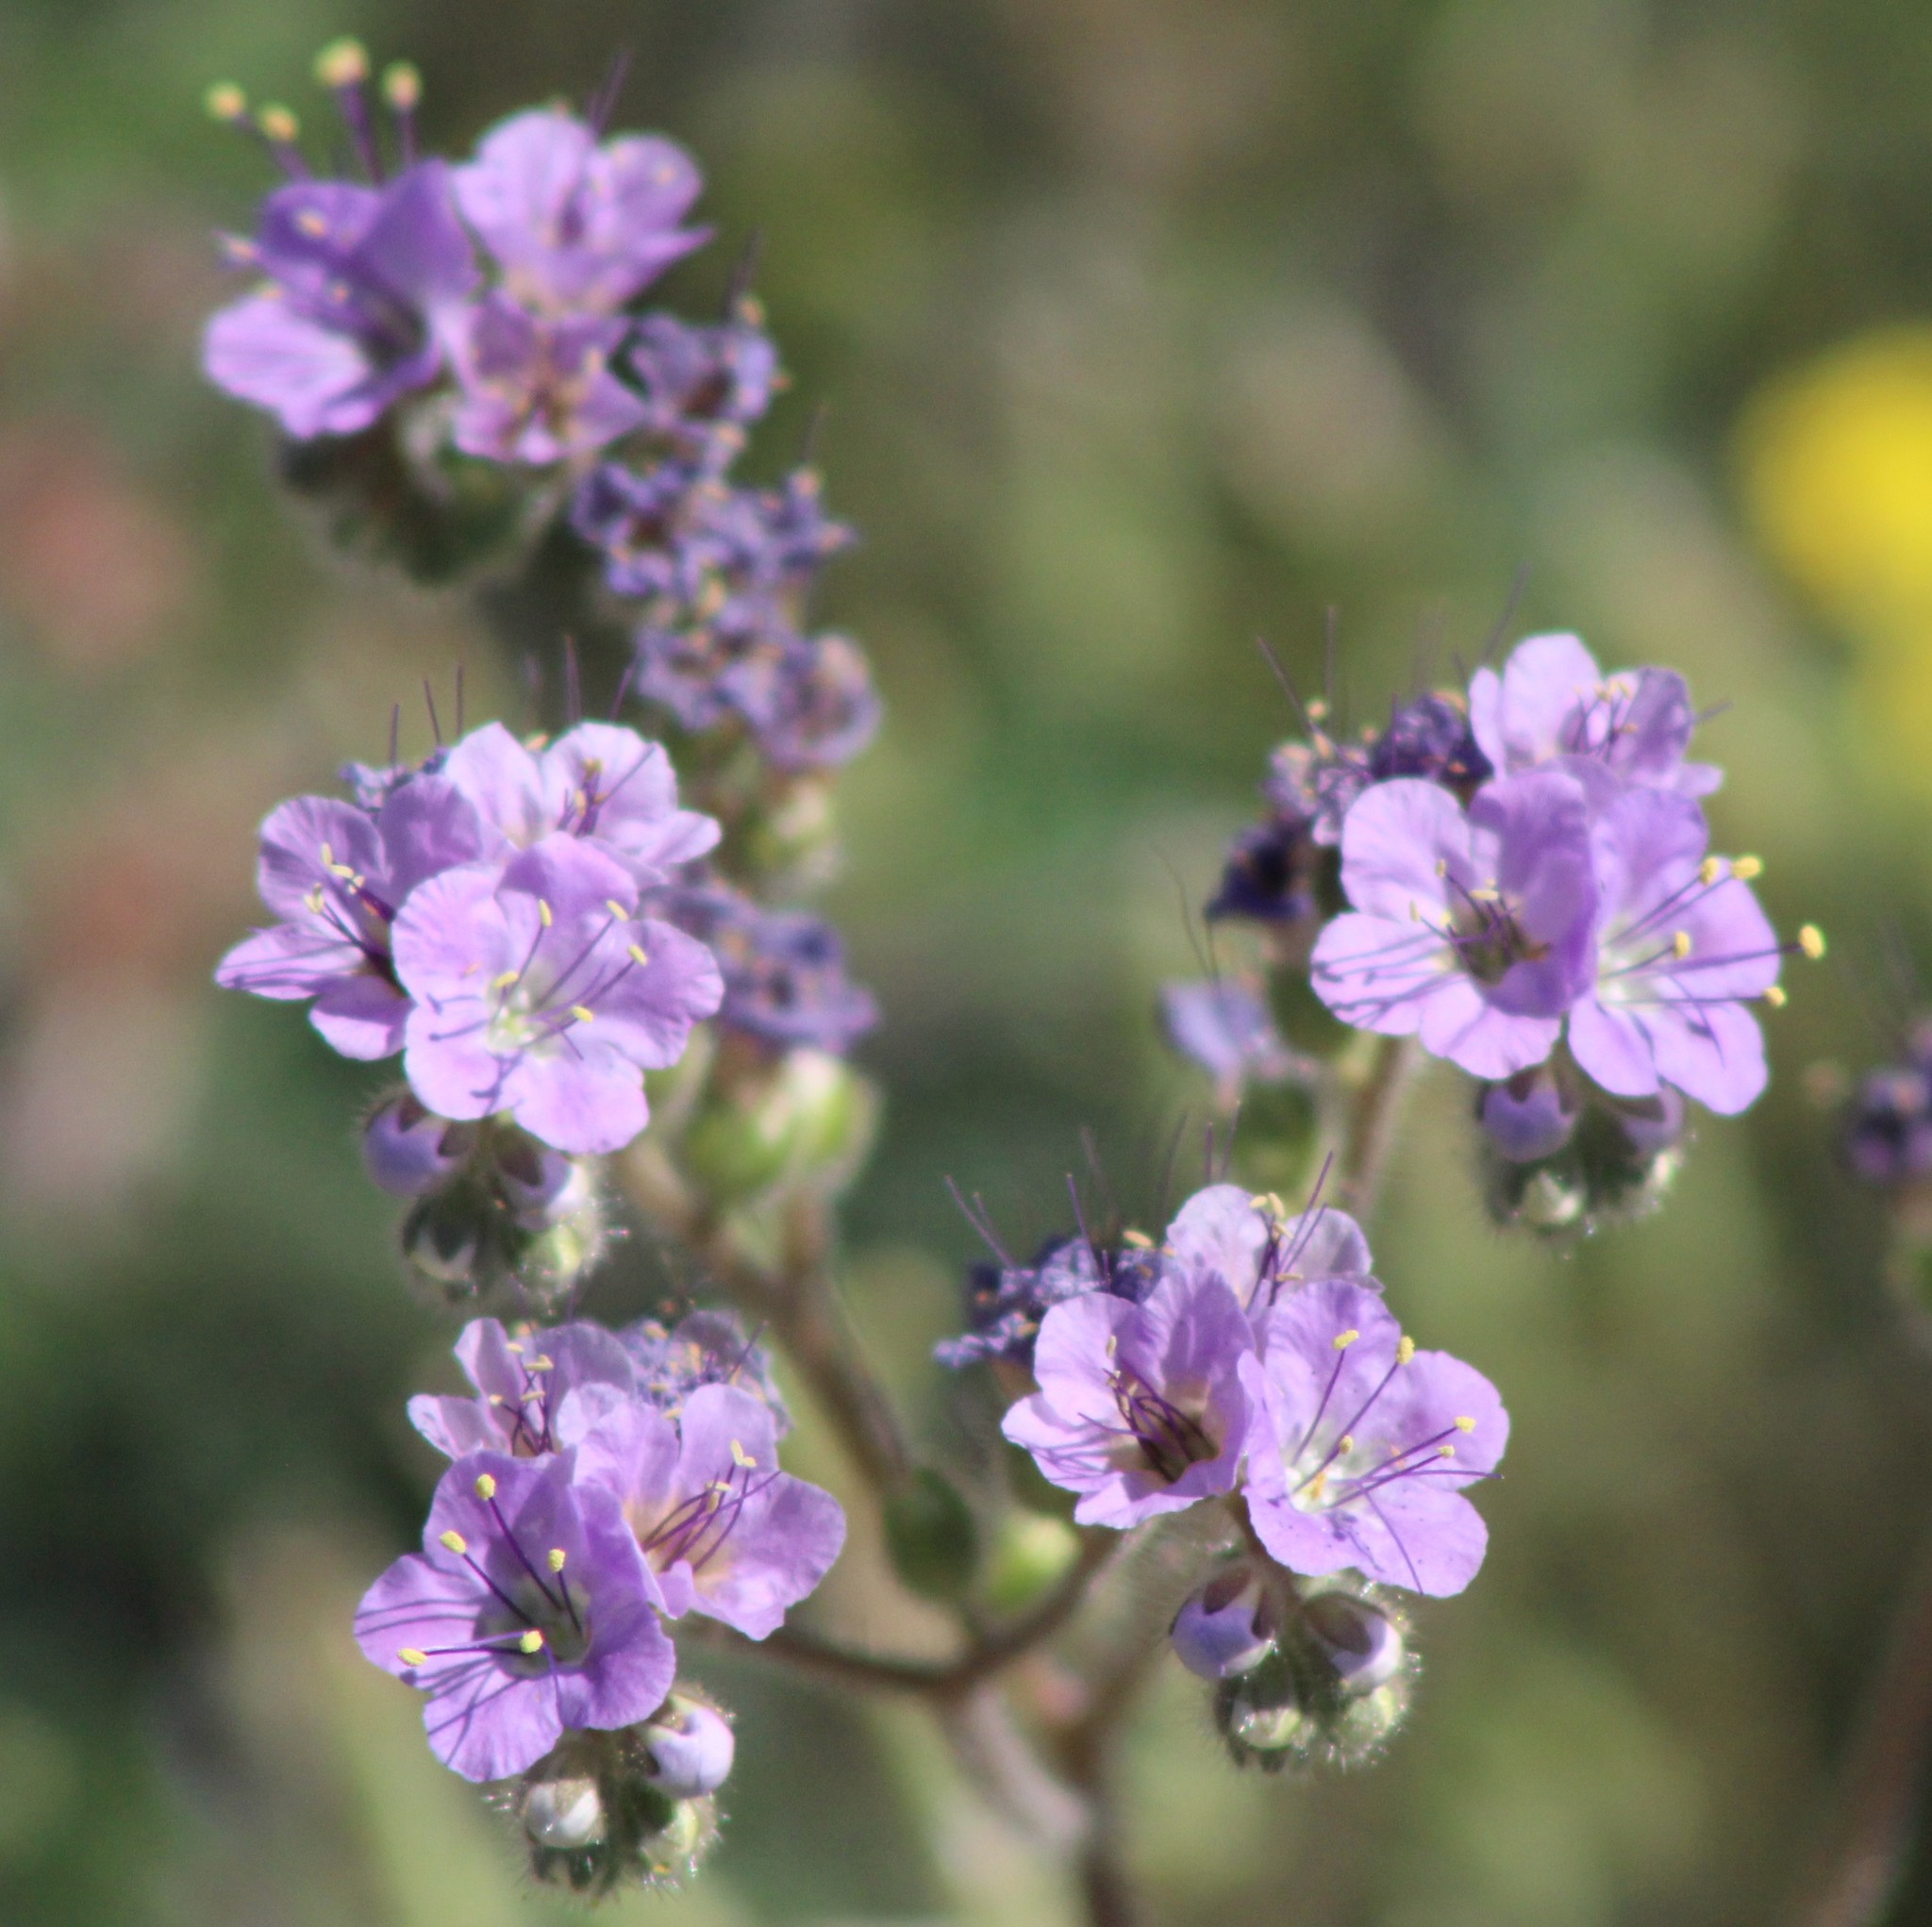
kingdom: Plantae
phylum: Tracheophyta
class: Magnoliopsida
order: Boraginales
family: Hydrophyllaceae
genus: Phacelia
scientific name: Phacelia crenulata
